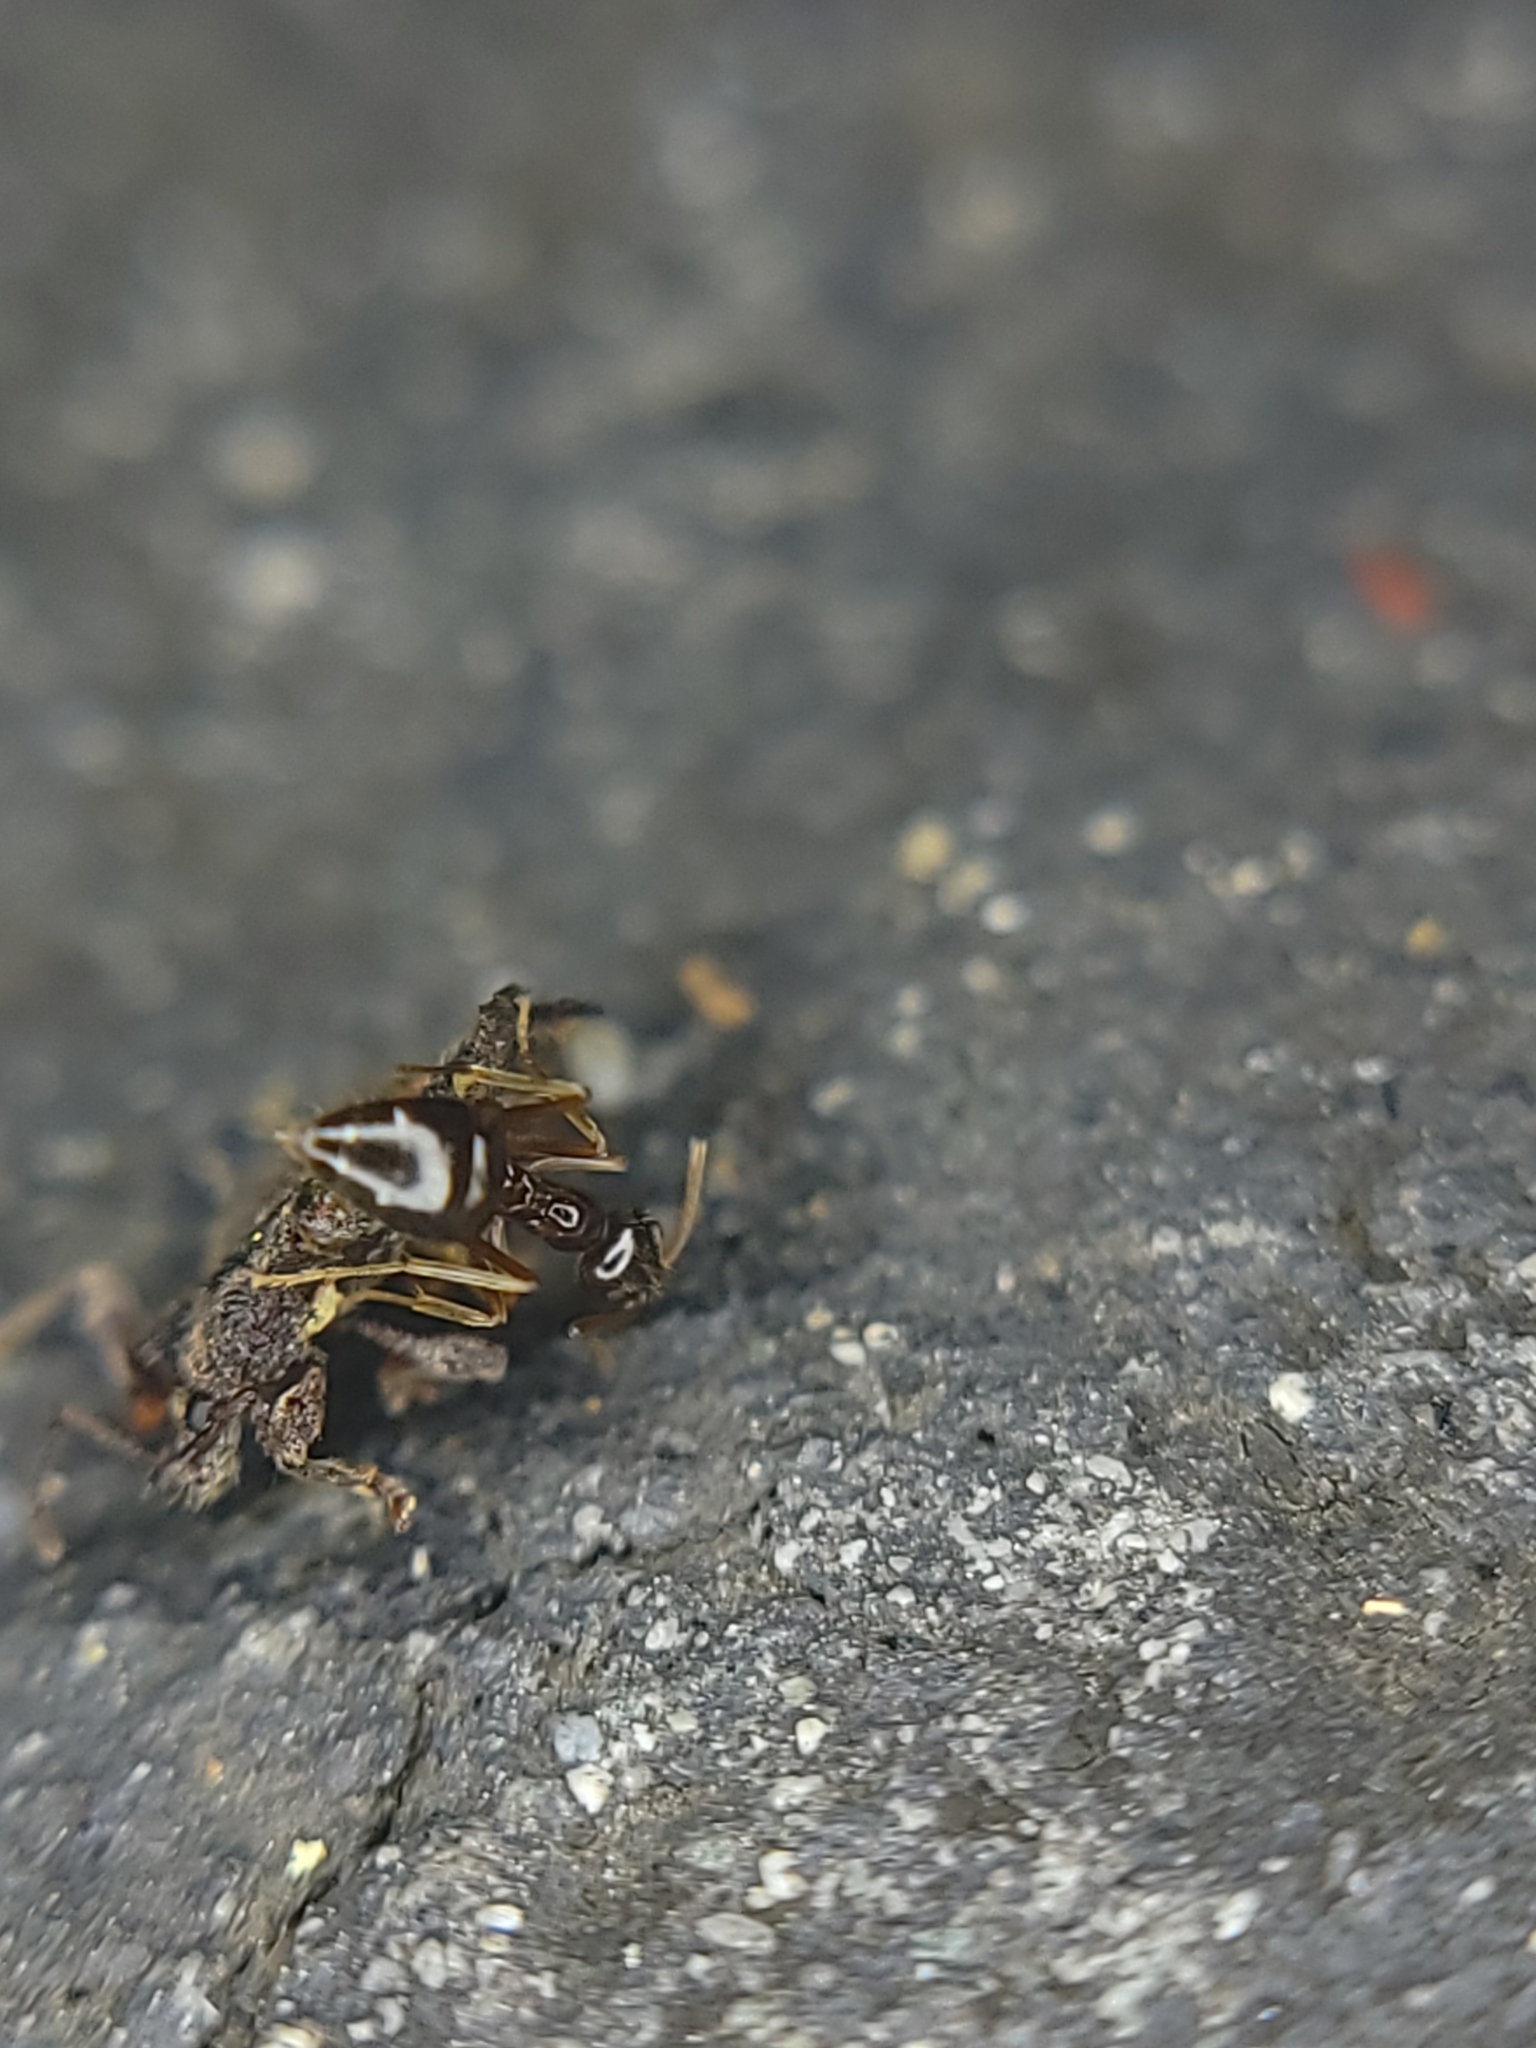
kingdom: Animalia
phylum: Arthropoda
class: Insecta
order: Hymenoptera
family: Formicidae
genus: Prenolepis
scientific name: Prenolepis imparis
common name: Small honey ant
